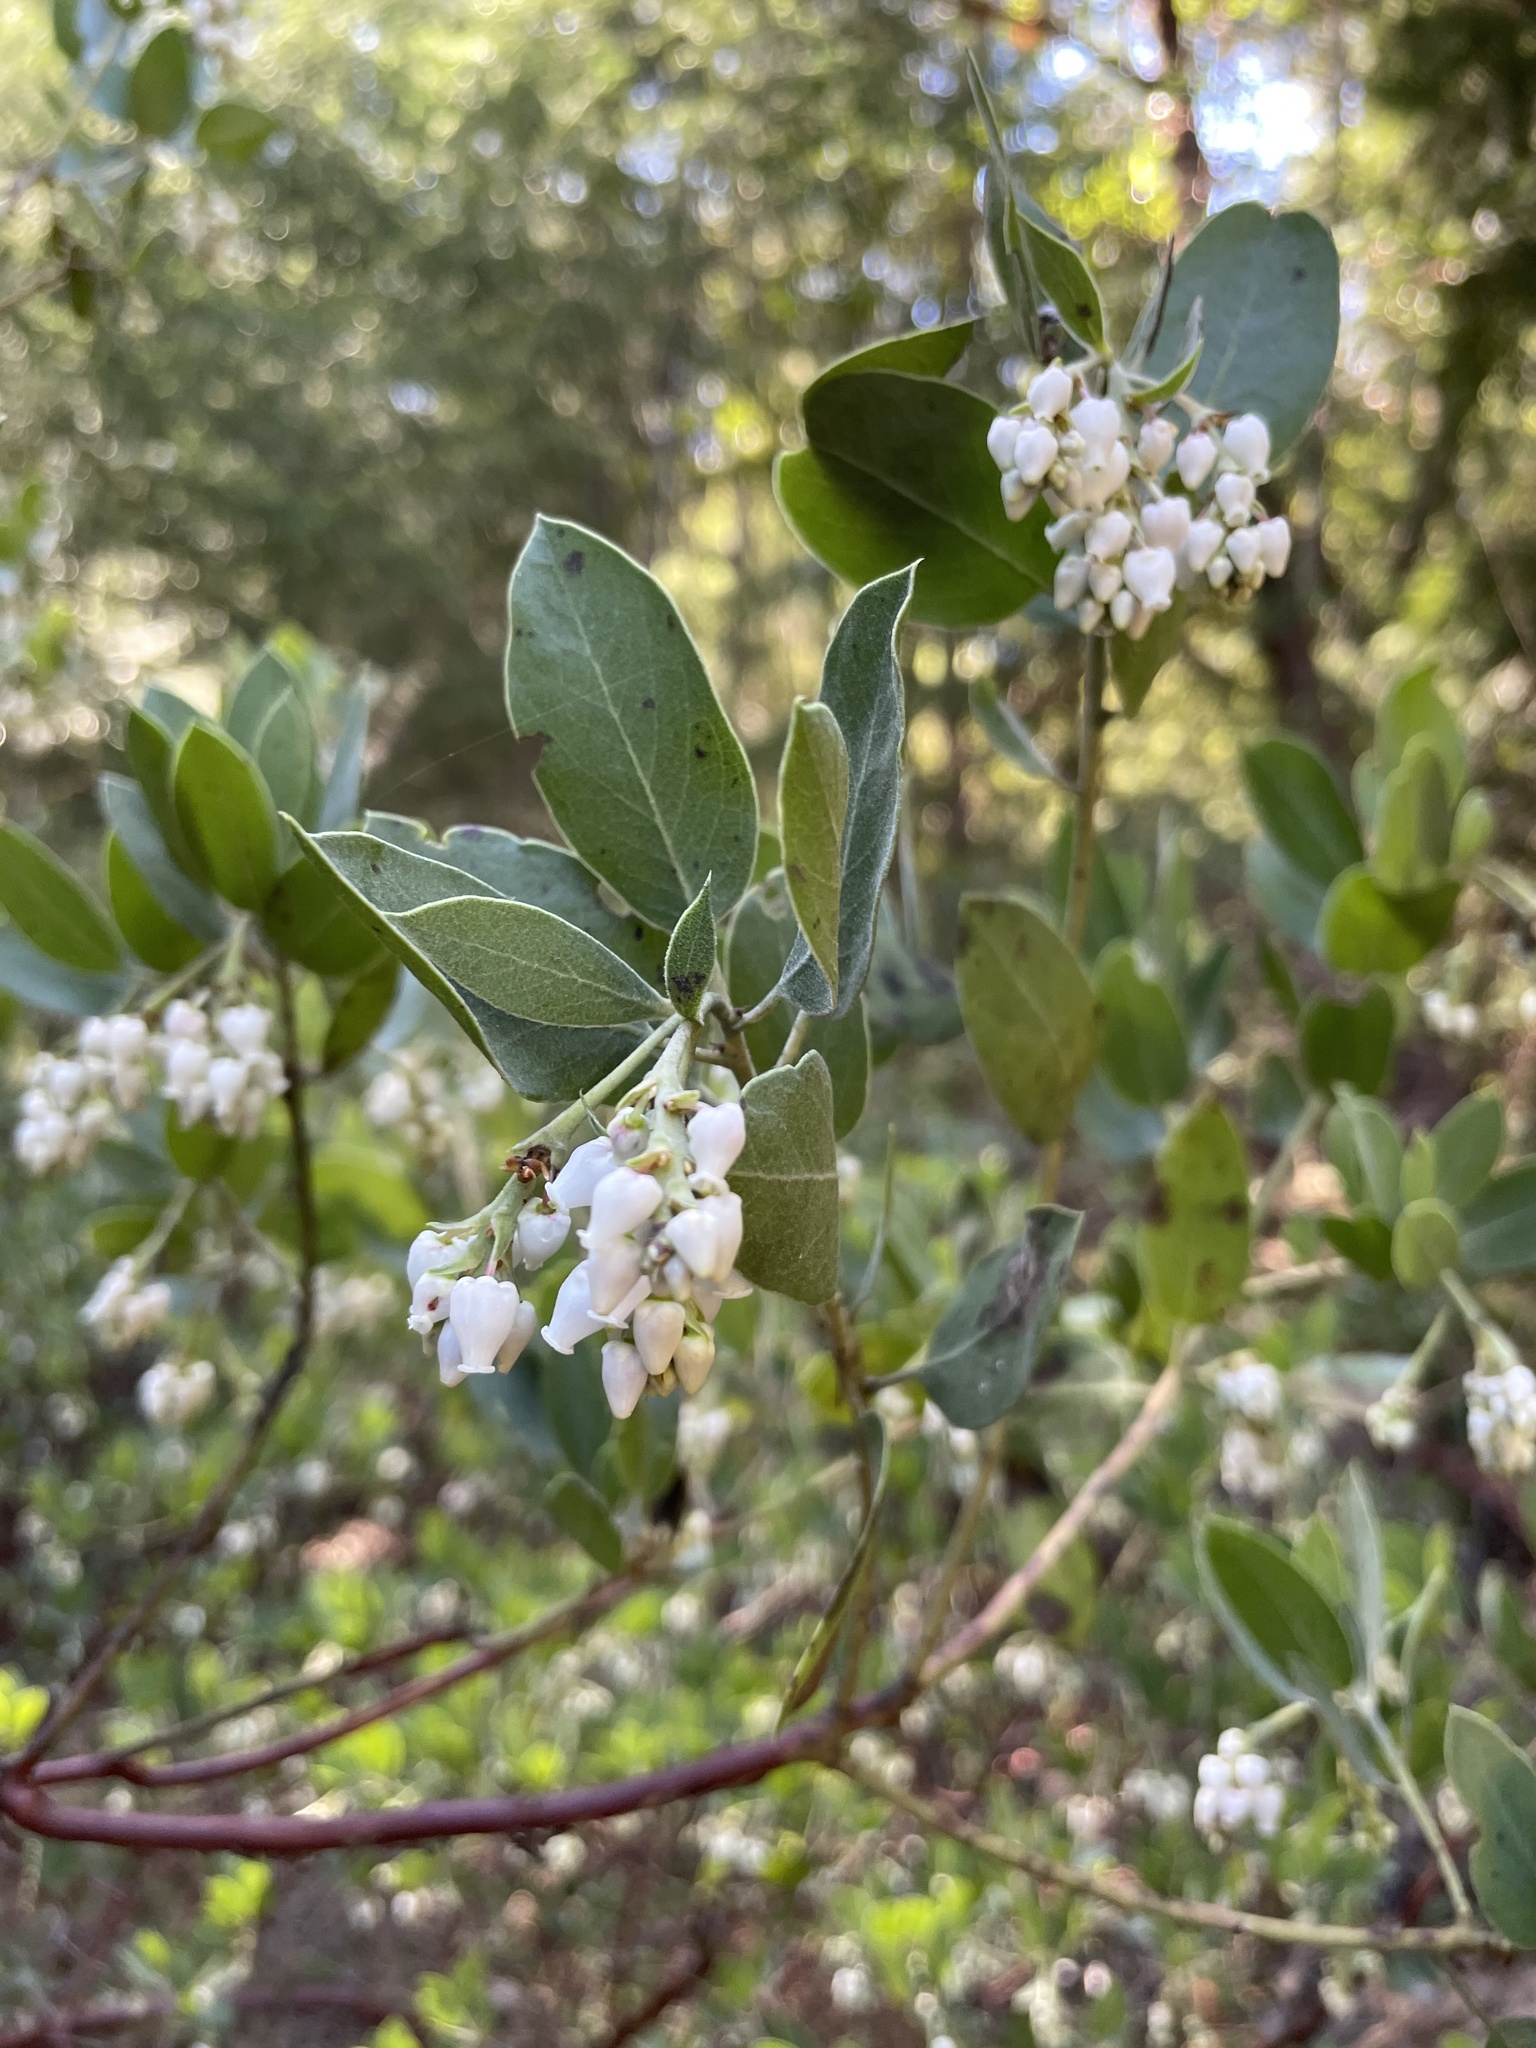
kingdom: Plantae
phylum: Tracheophyta
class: Magnoliopsida
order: Ericales
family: Ericaceae
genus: Arctostaphylos
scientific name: Arctostaphylos manzanita
